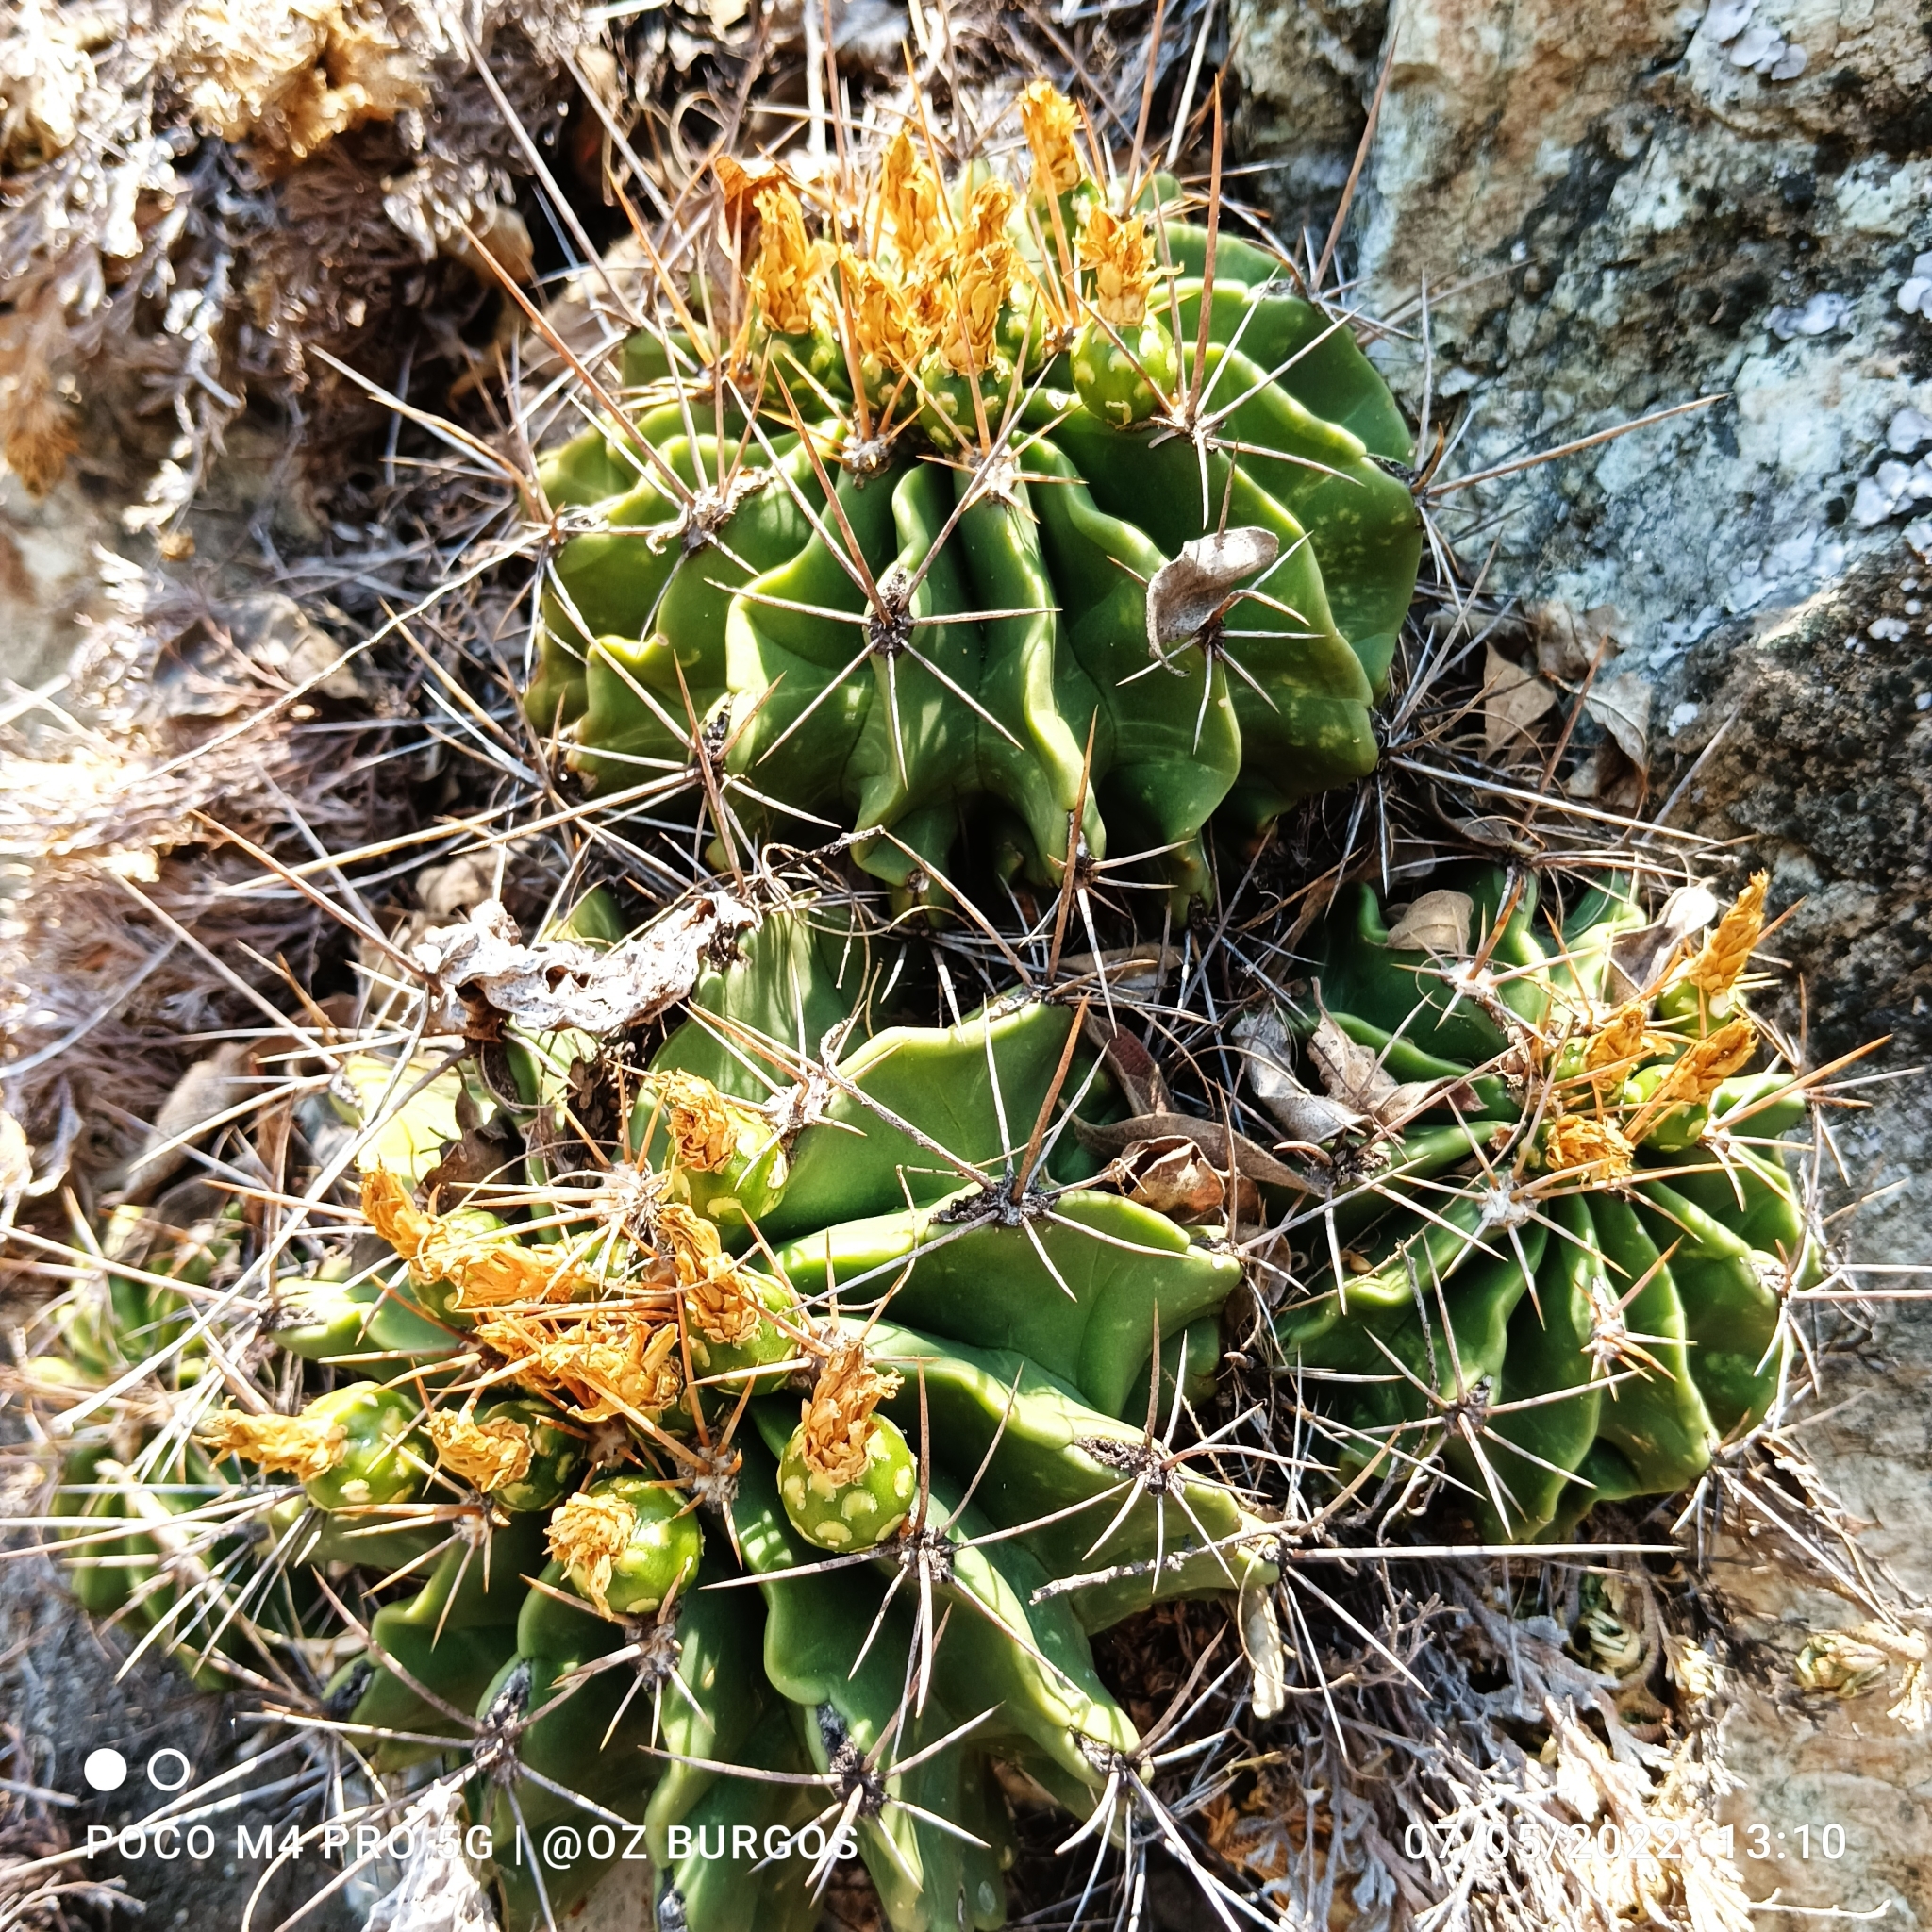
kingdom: Plantae
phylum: Tracheophyta
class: Magnoliopsida
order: Caryophyllales
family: Cactaceae
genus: Parrycactus
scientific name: Parrycactus echidne
